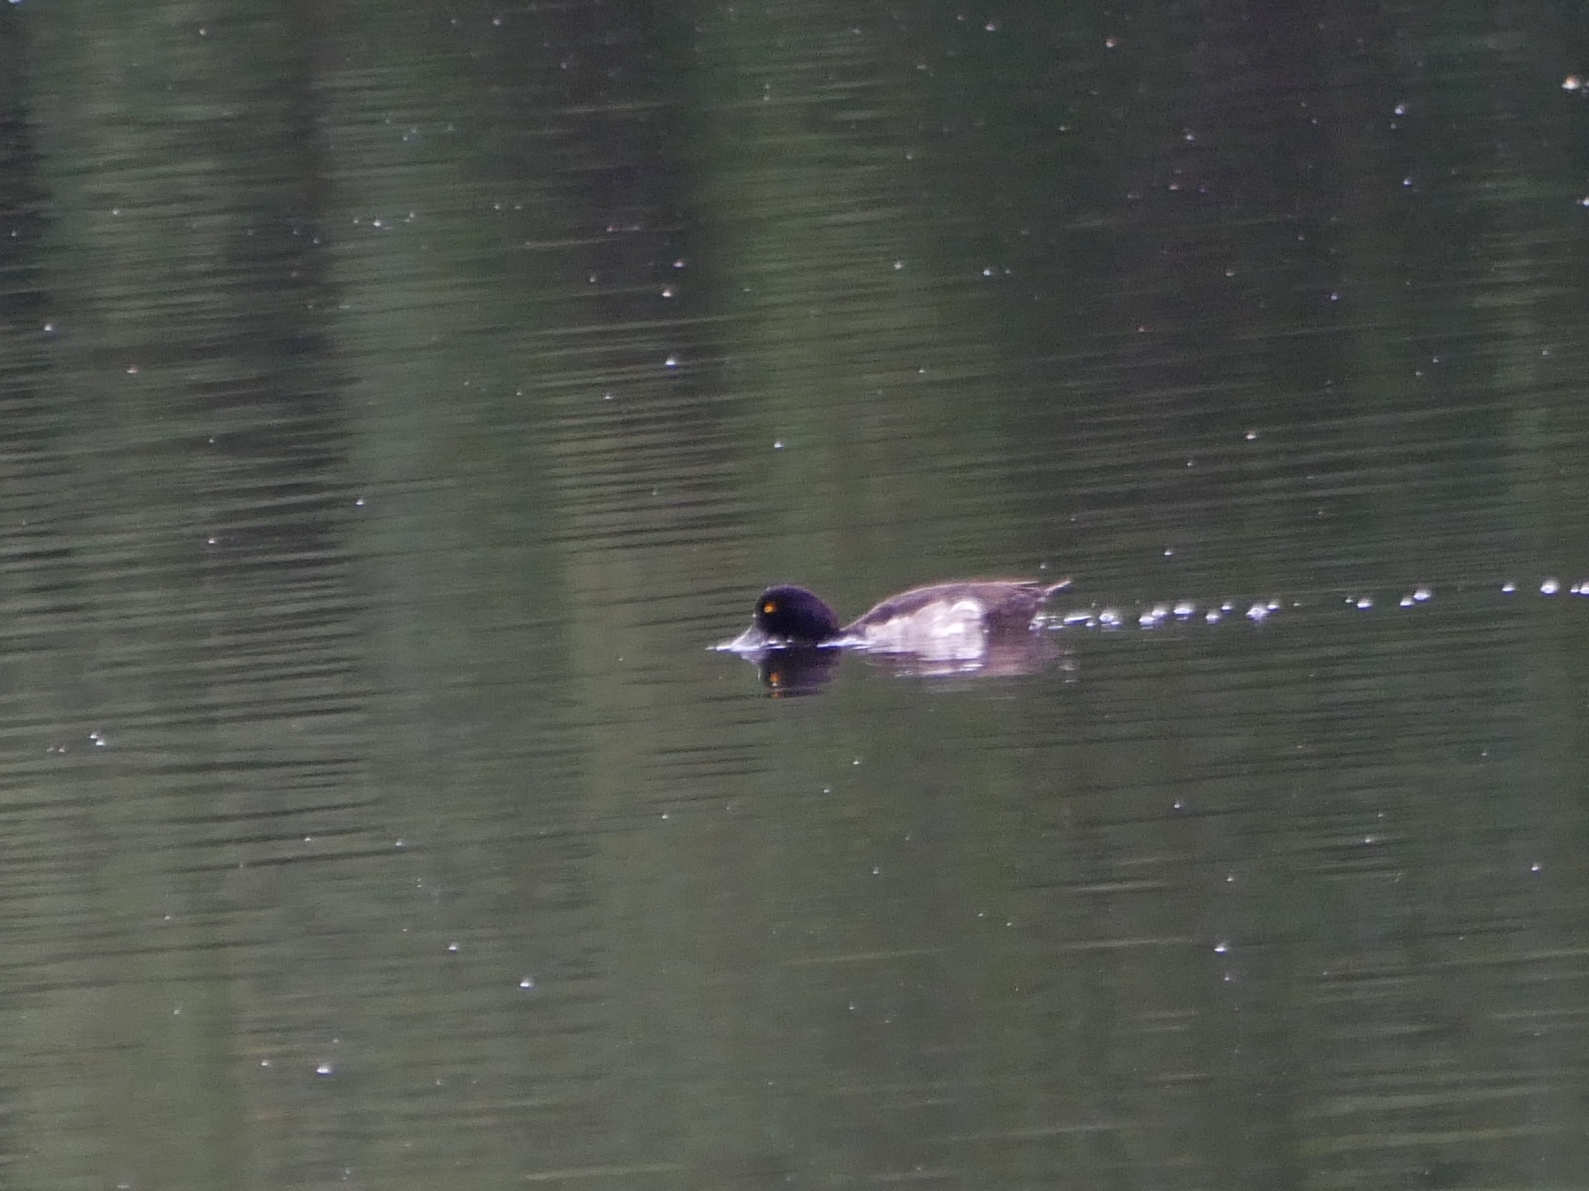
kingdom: Animalia
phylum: Chordata
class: Aves
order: Anseriformes
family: Anatidae
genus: Aythya
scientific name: Aythya fuligula
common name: Tufted duck
